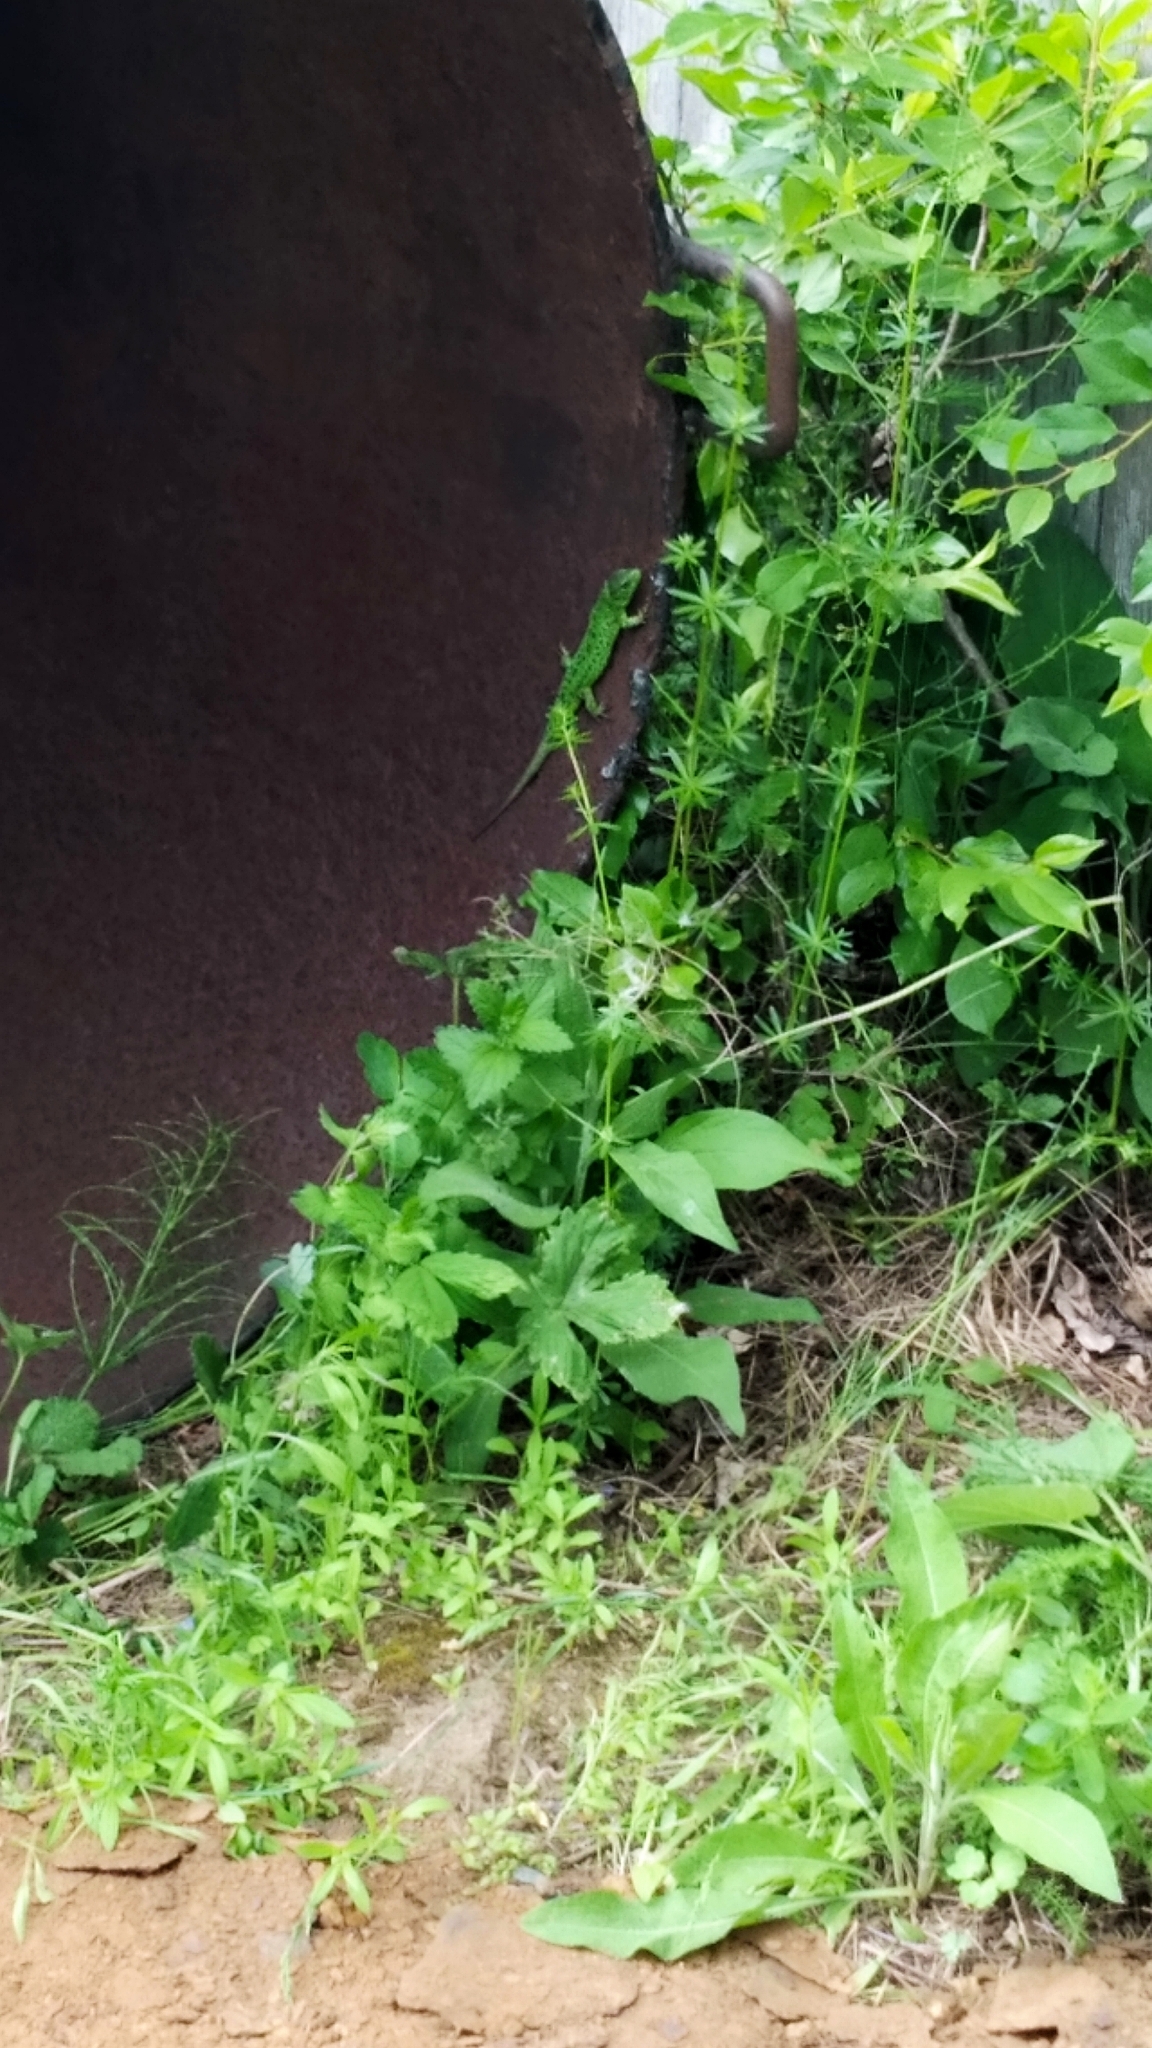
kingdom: Animalia
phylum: Chordata
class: Squamata
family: Lacertidae
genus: Lacerta
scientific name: Lacerta agilis
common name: Sand lizard
